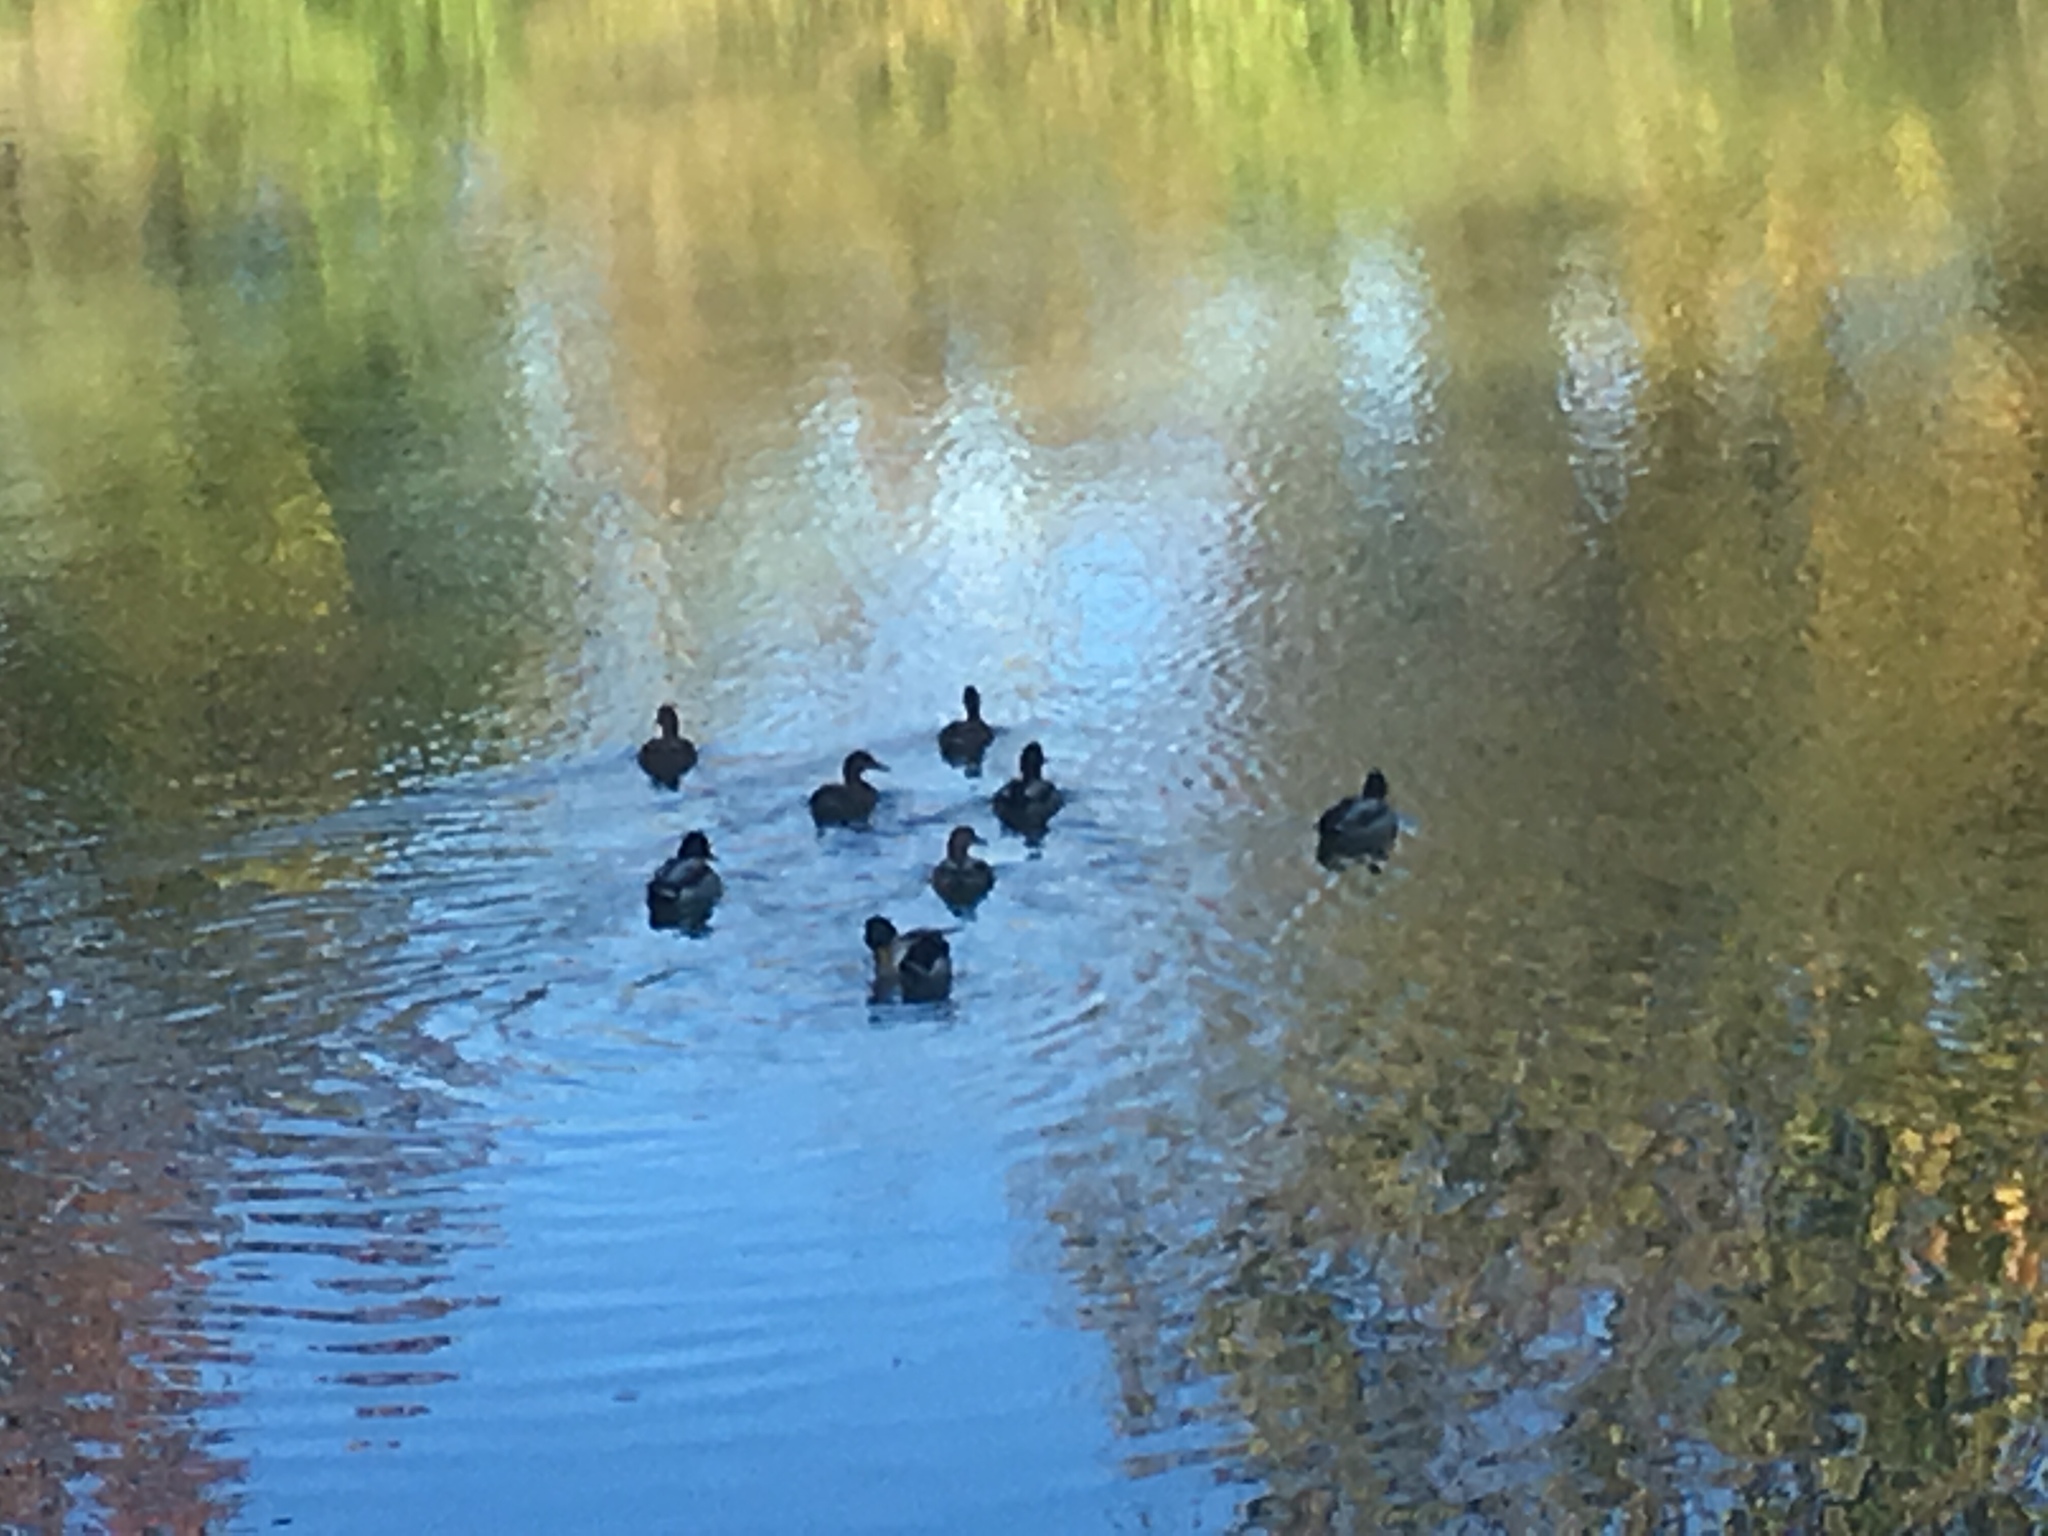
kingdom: Animalia
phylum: Chordata
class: Aves
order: Anseriformes
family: Anatidae
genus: Anas
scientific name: Anas platyrhynchos
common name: Mallard
